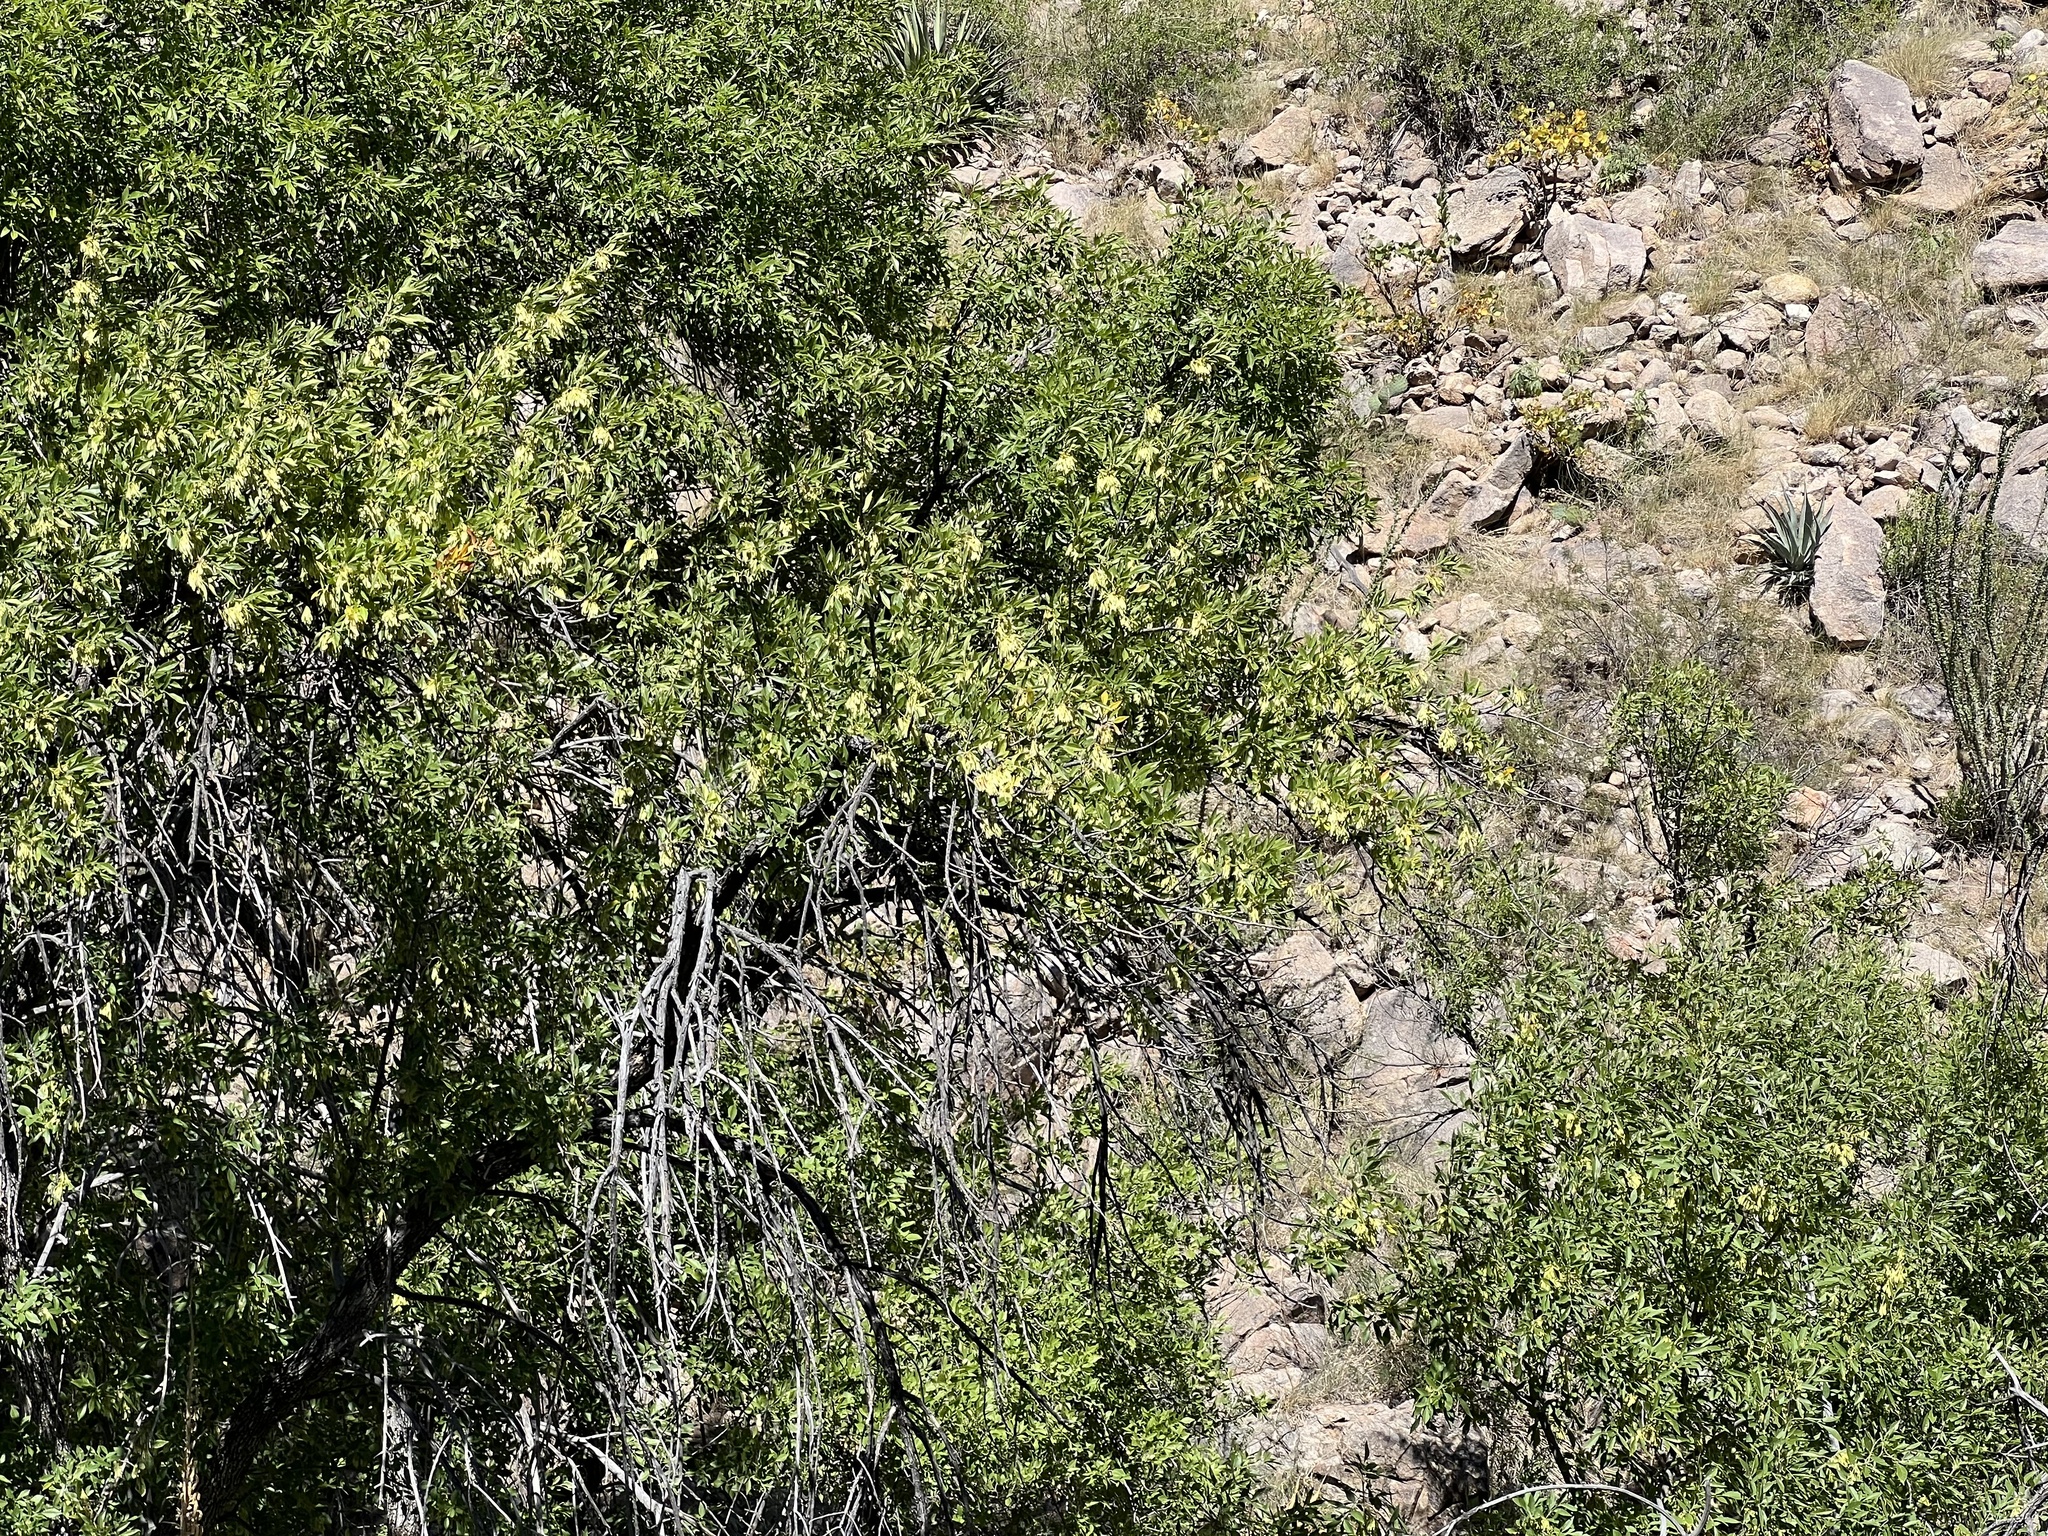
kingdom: Plantae
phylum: Tracheophyta
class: Magnoliopsida
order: Lamiales
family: Oleaceae
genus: Fraxinus
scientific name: Fraxinus velutina
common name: Arizon ash
